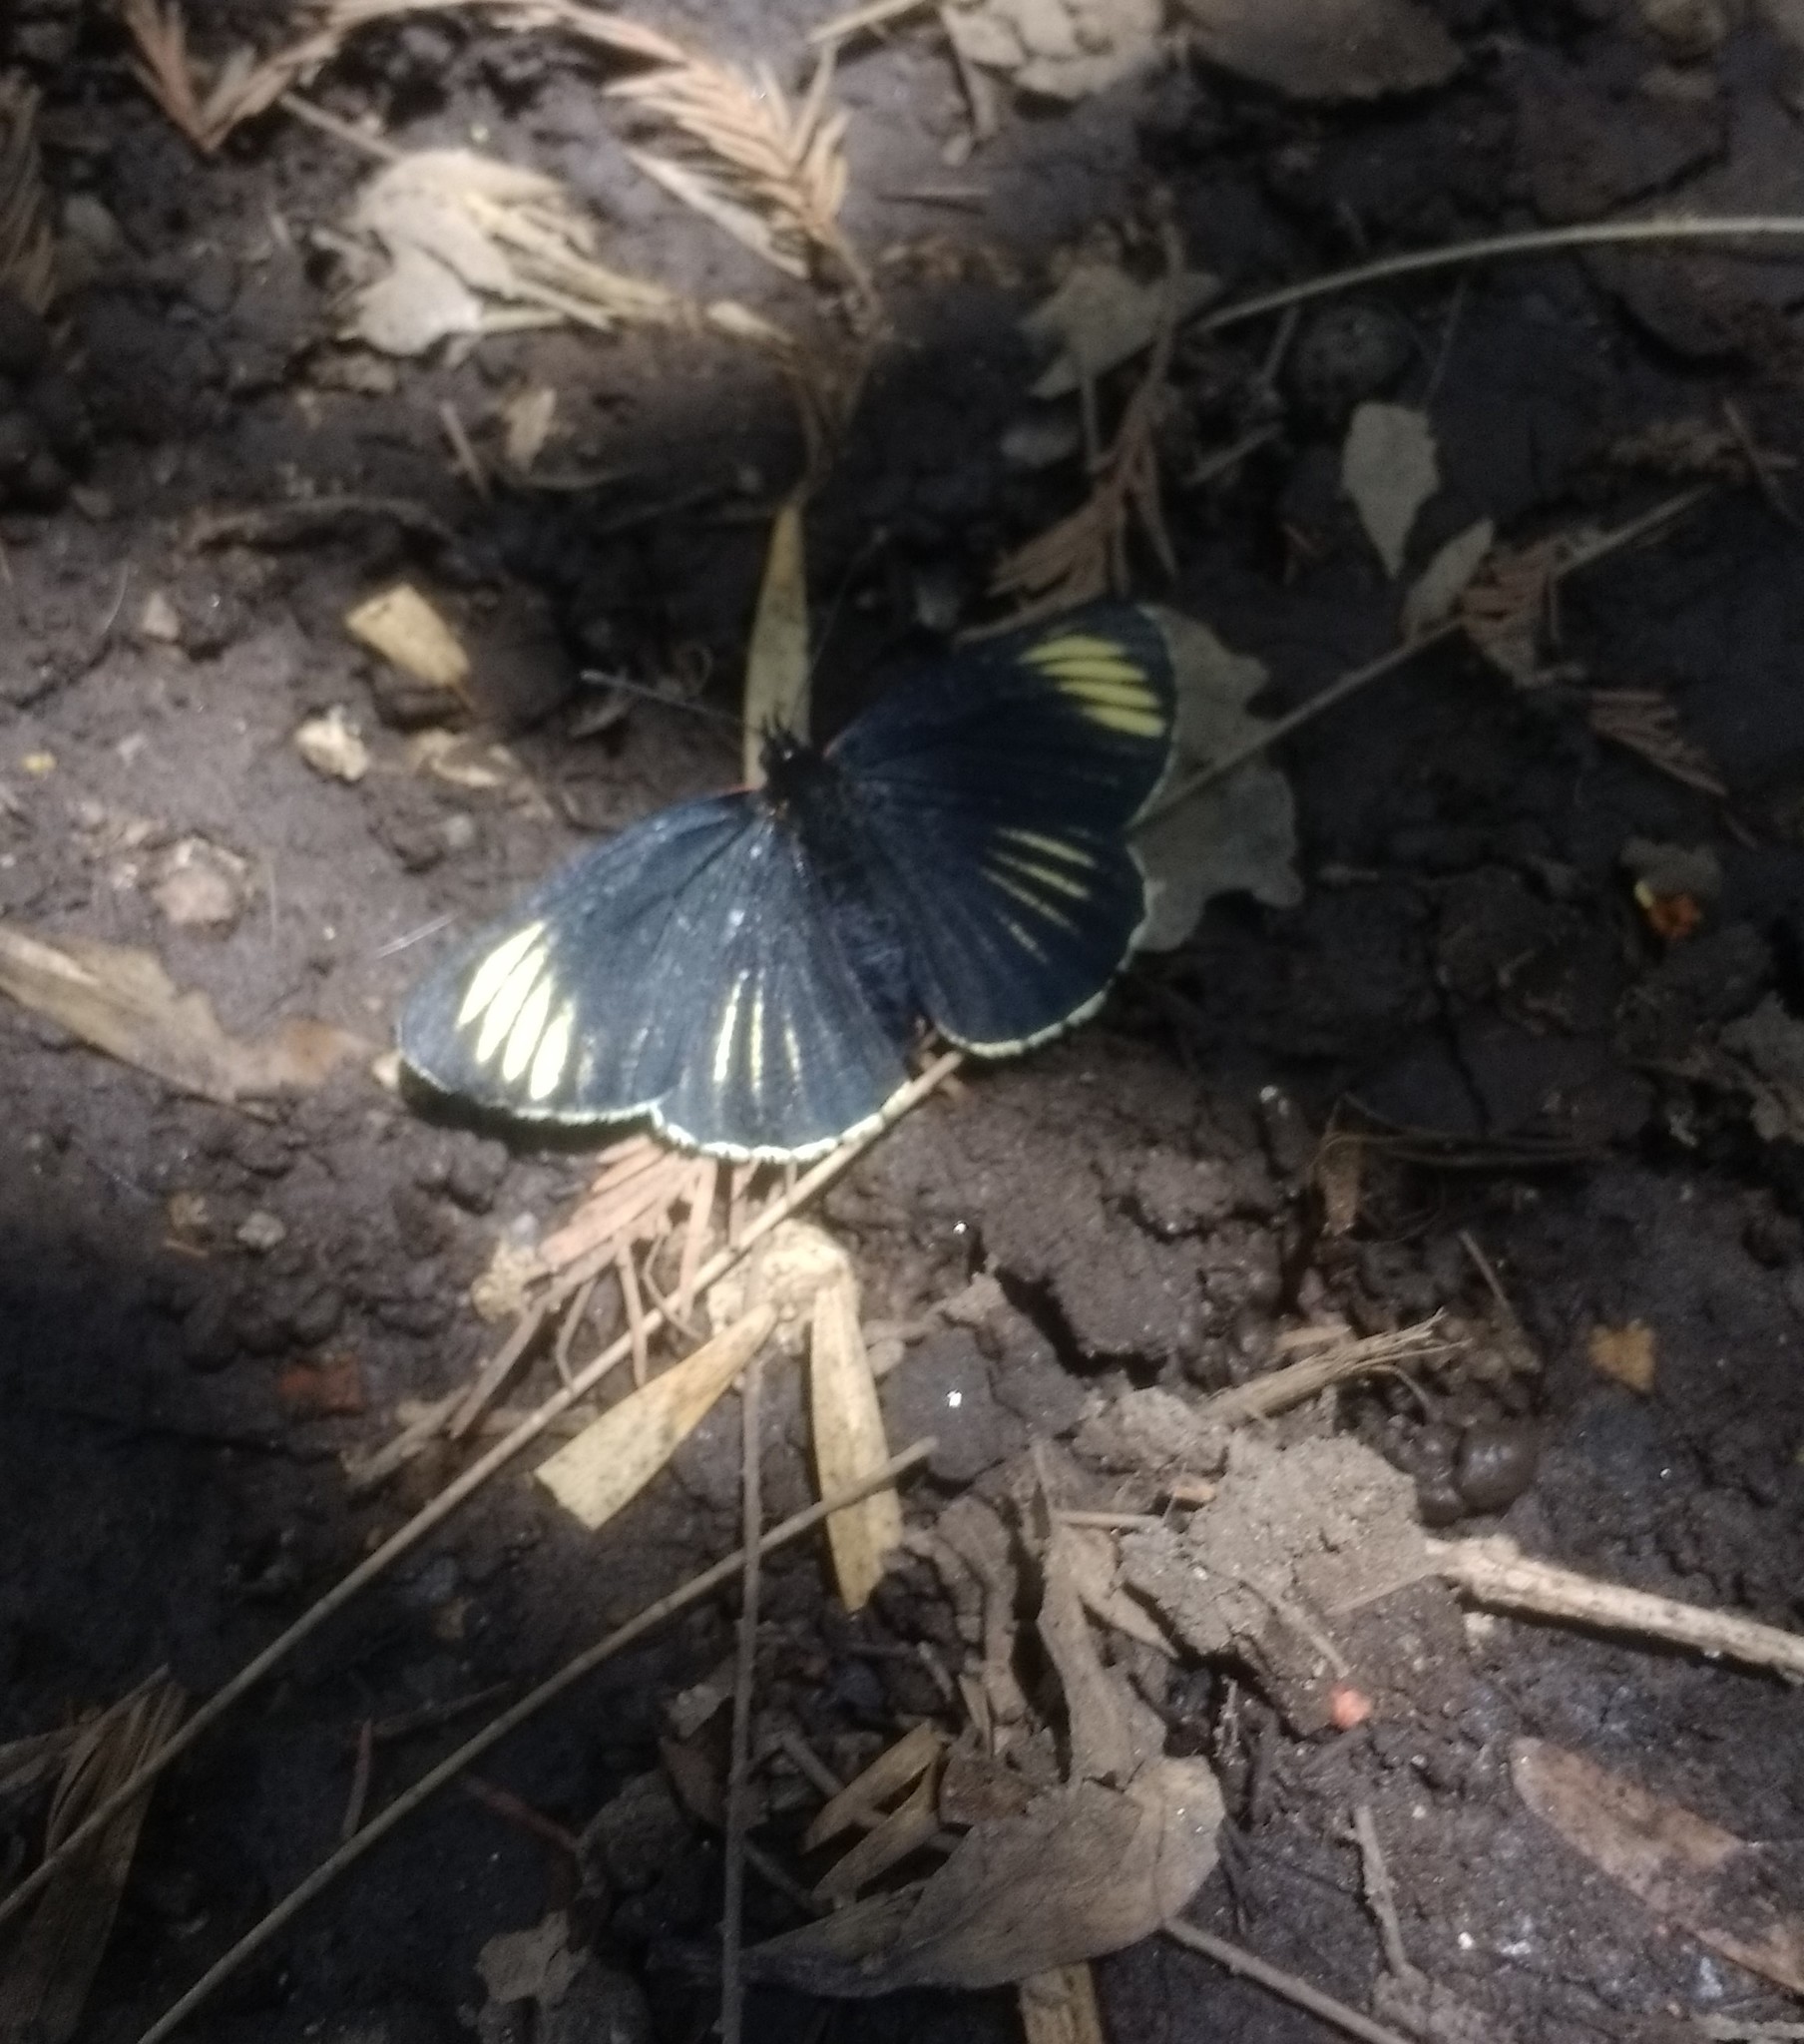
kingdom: Animalia
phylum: Arthropoda
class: Insecta
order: Lepidoptera
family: Nymphalidae
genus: Chlosyne
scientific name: Chlosyne ehrenbergii
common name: White-rayed patch
